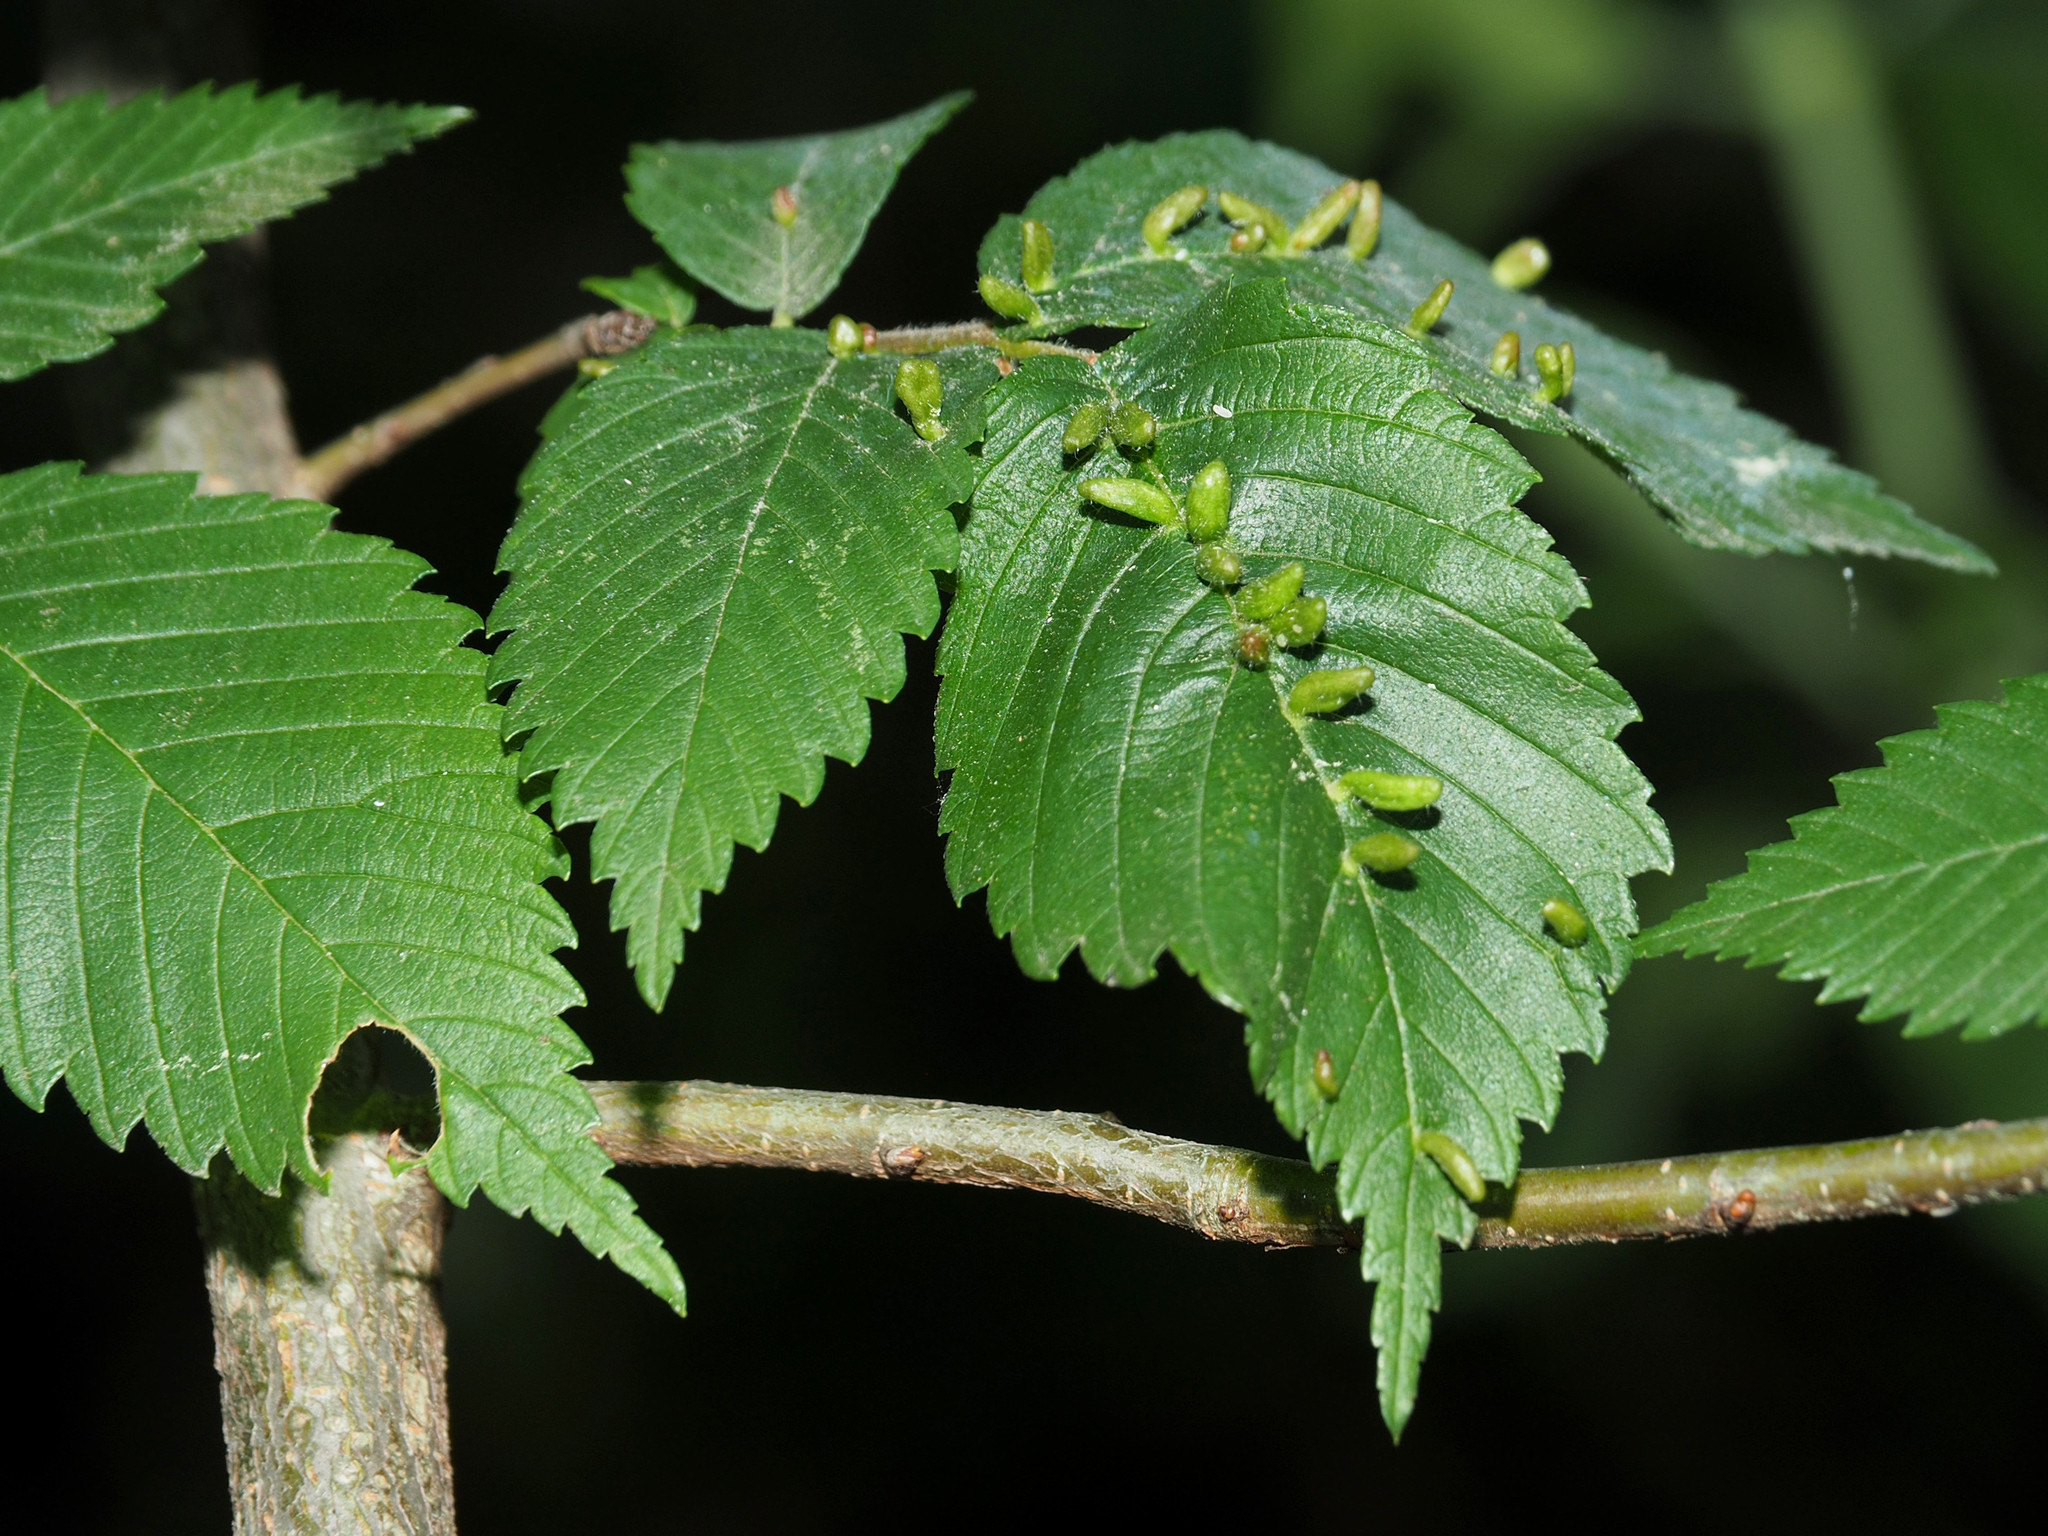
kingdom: Animalia
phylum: Arthropoda
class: Arachnida
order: Trombidiformes
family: Eriophyidae
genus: Aceria
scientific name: Aceria
